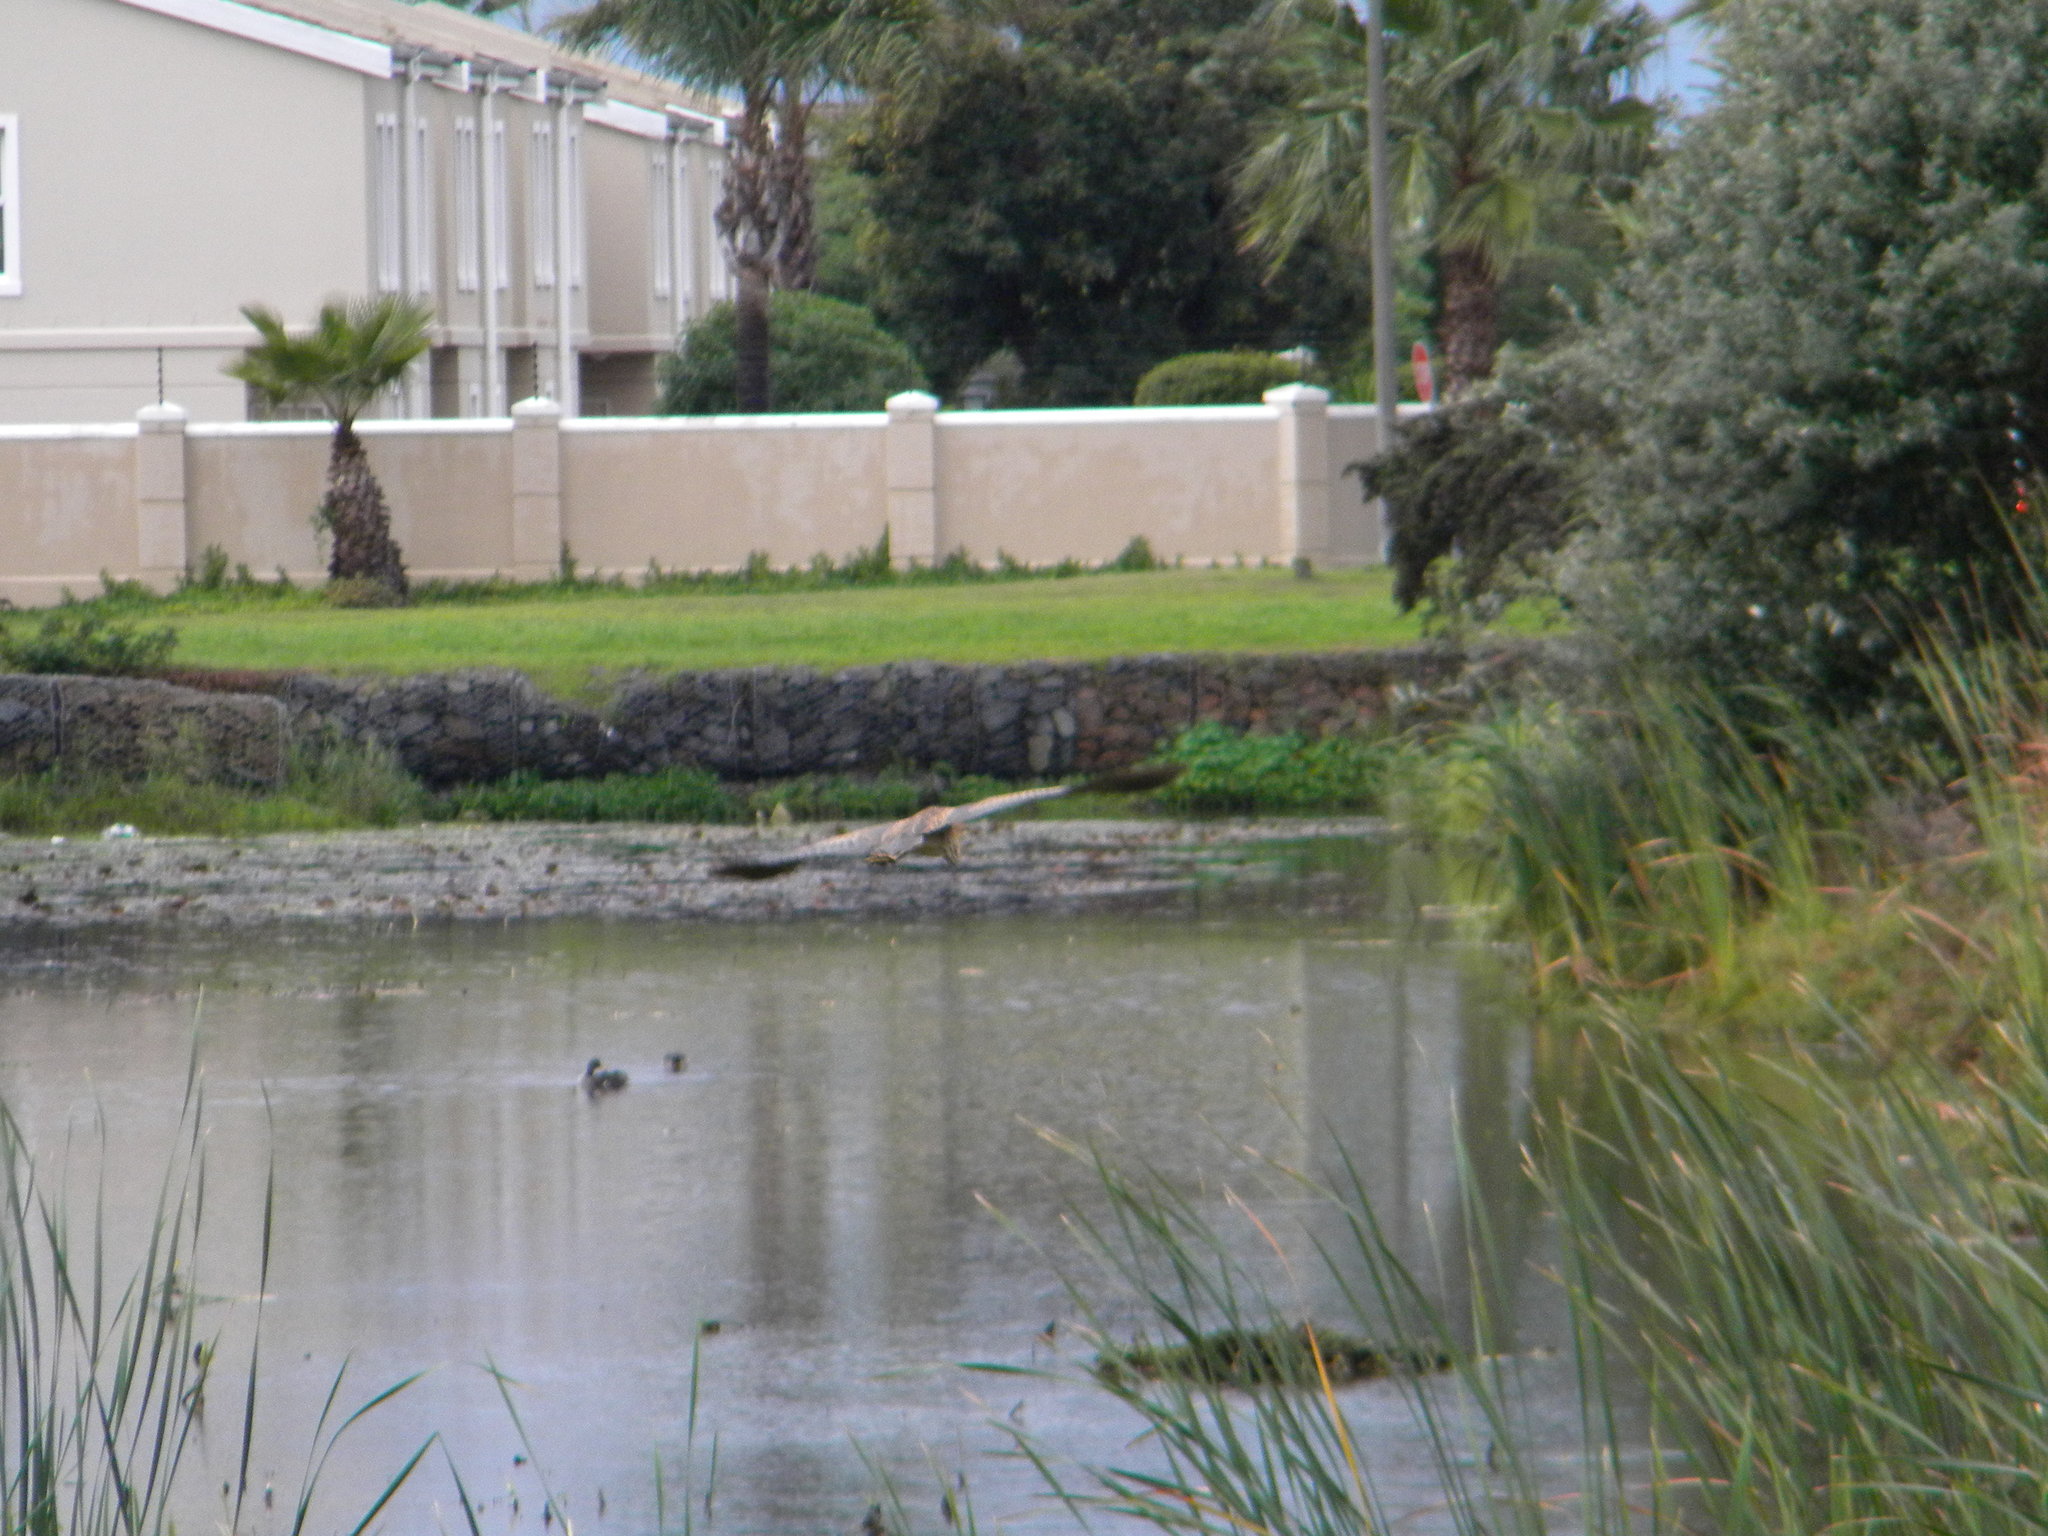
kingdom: Animalia
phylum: Chordata
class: Aves
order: Pelecaniformes
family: Ardeidae
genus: Ardea
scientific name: Ardea purpurea
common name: Purple heron
